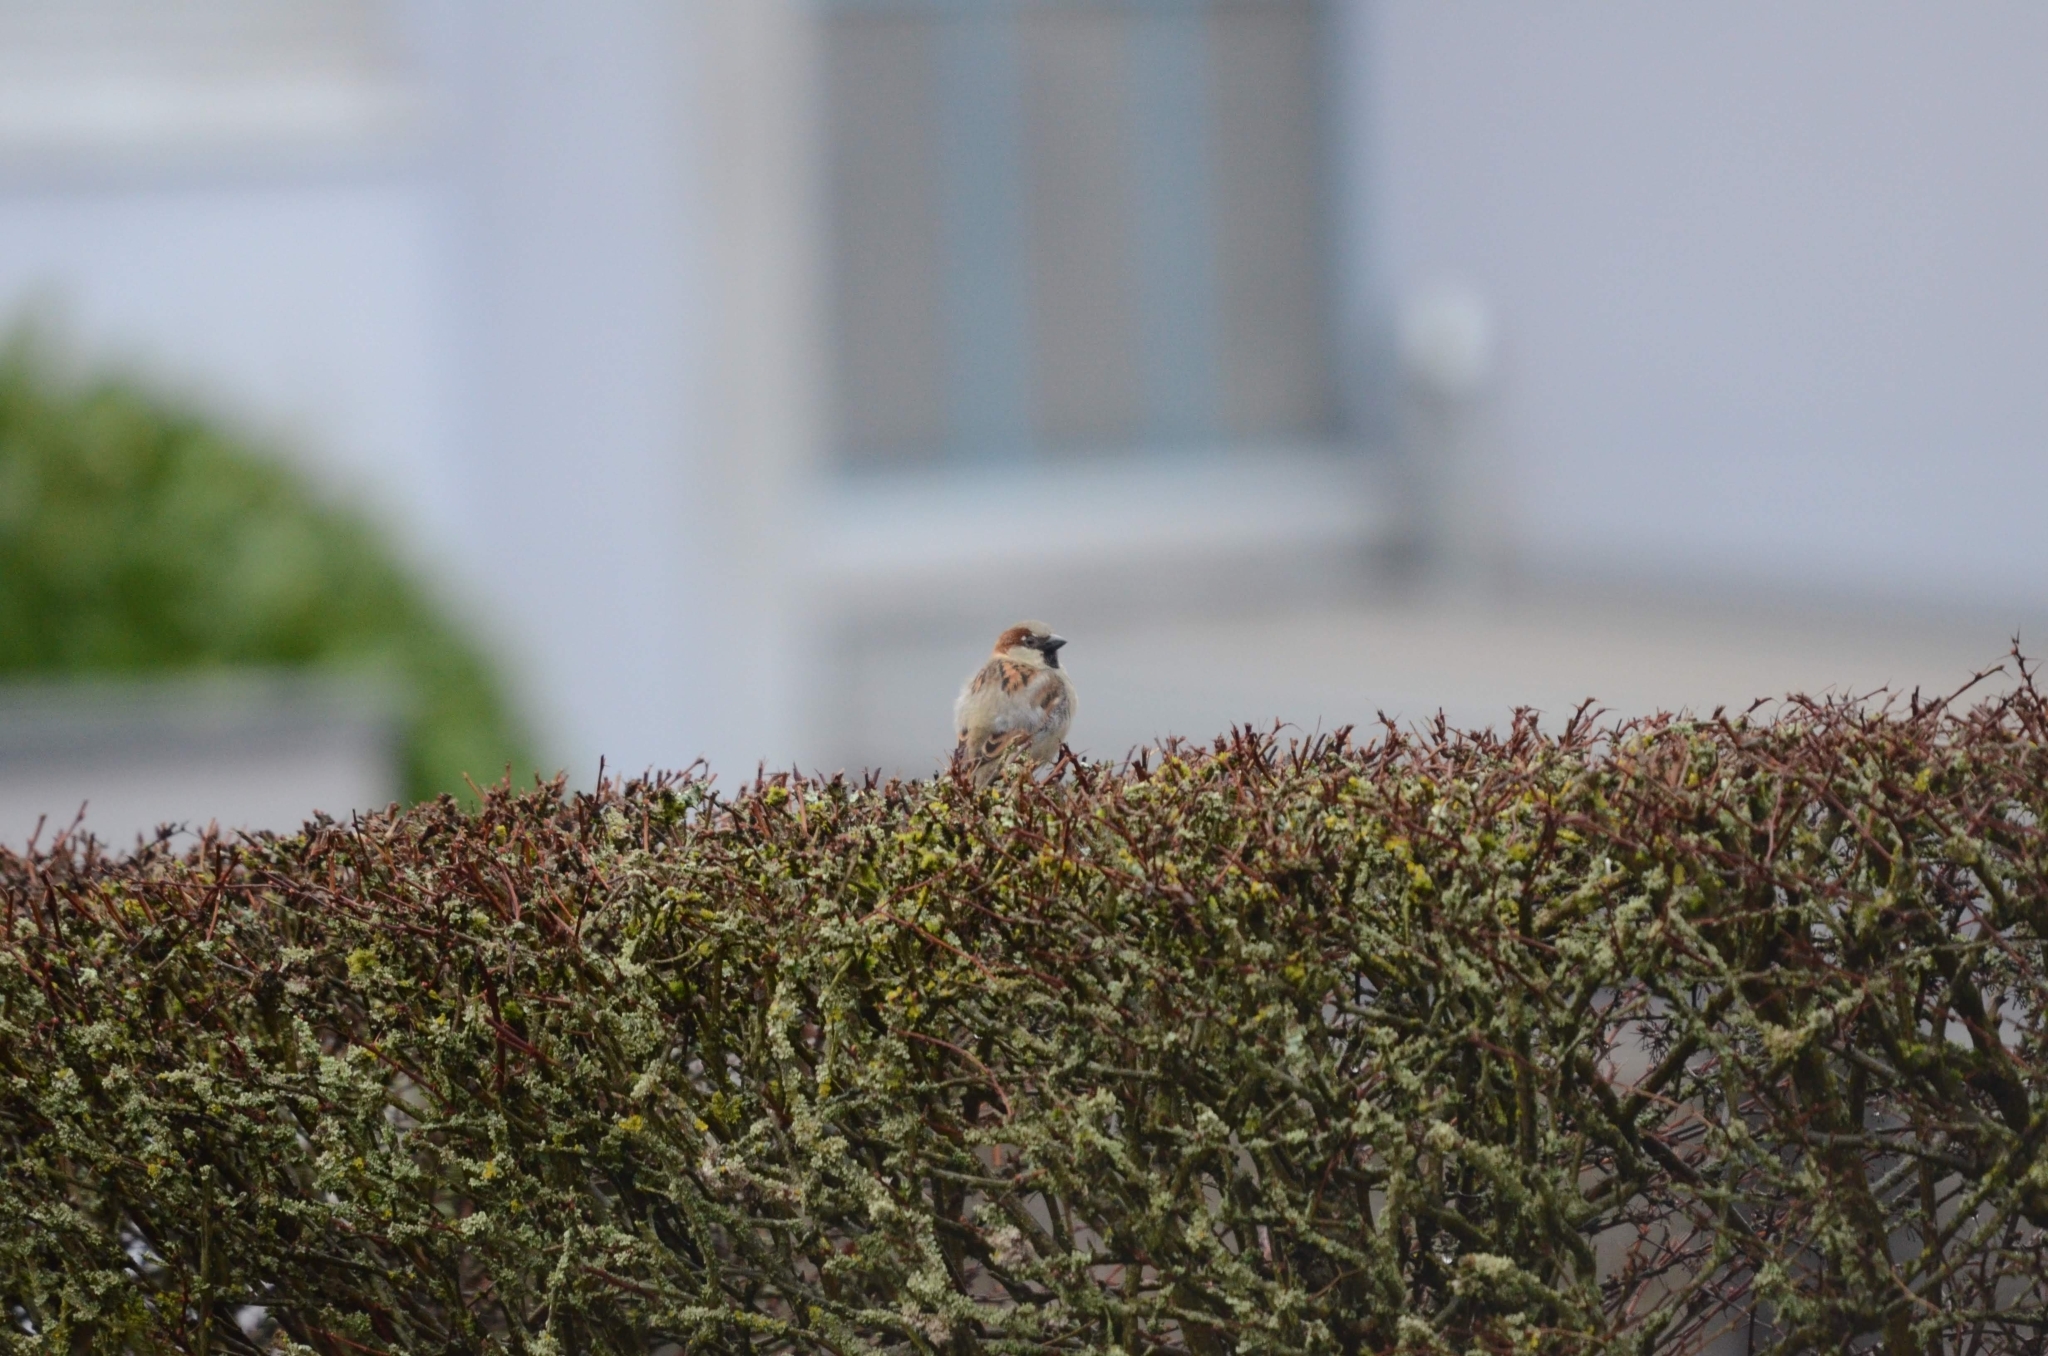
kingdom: Animalia
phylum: Chordata
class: Aves
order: Passeriformes
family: Passeridae
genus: Passer
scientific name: Passer domesticus
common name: House sparrow
